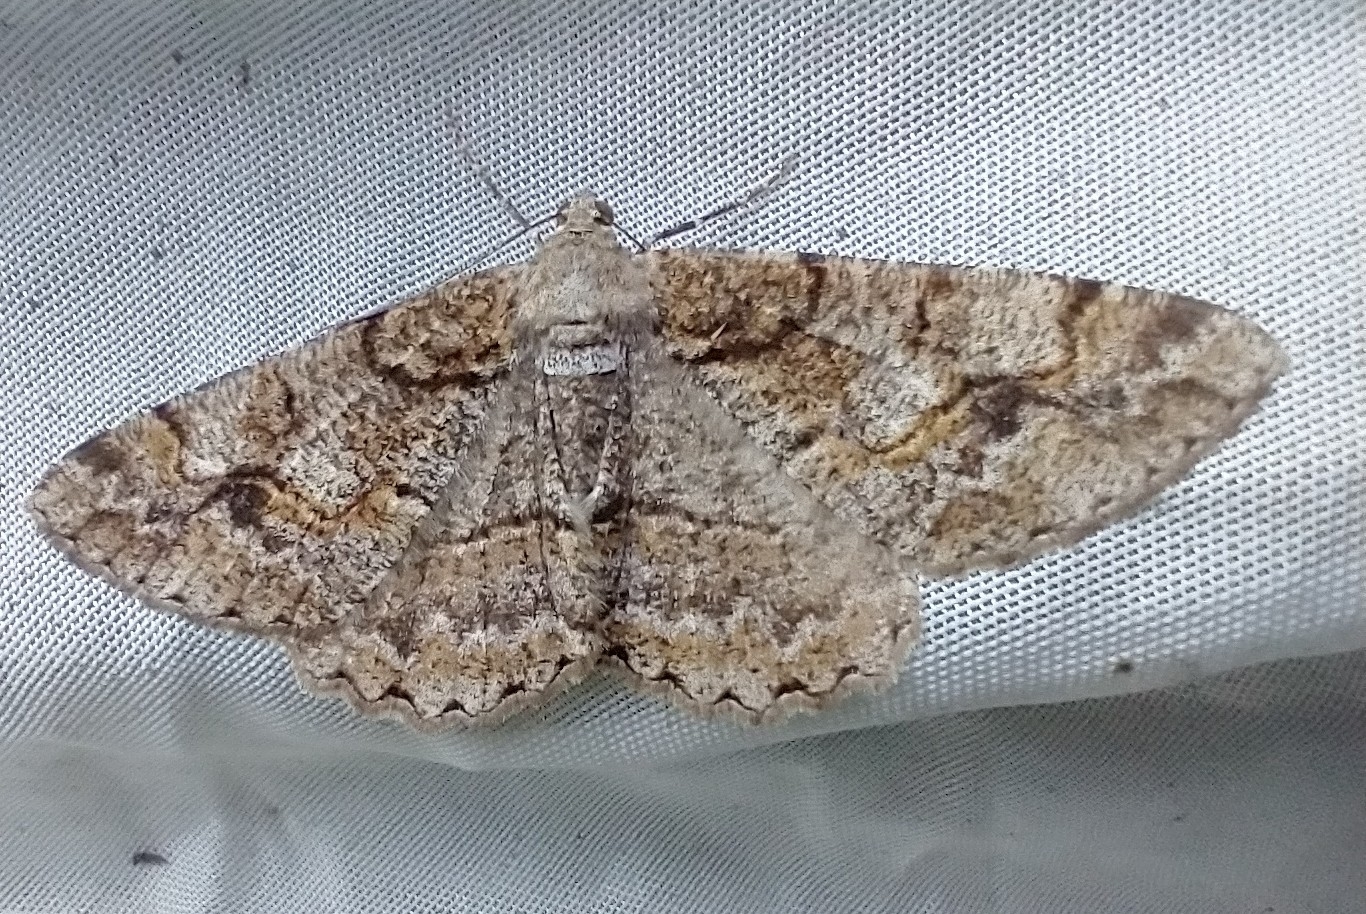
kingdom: Animalia
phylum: Arthropoda
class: Insecta
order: Lepidoptera
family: Geometridae
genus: Alcis
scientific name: Alcis repandata
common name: Mottled beauty
